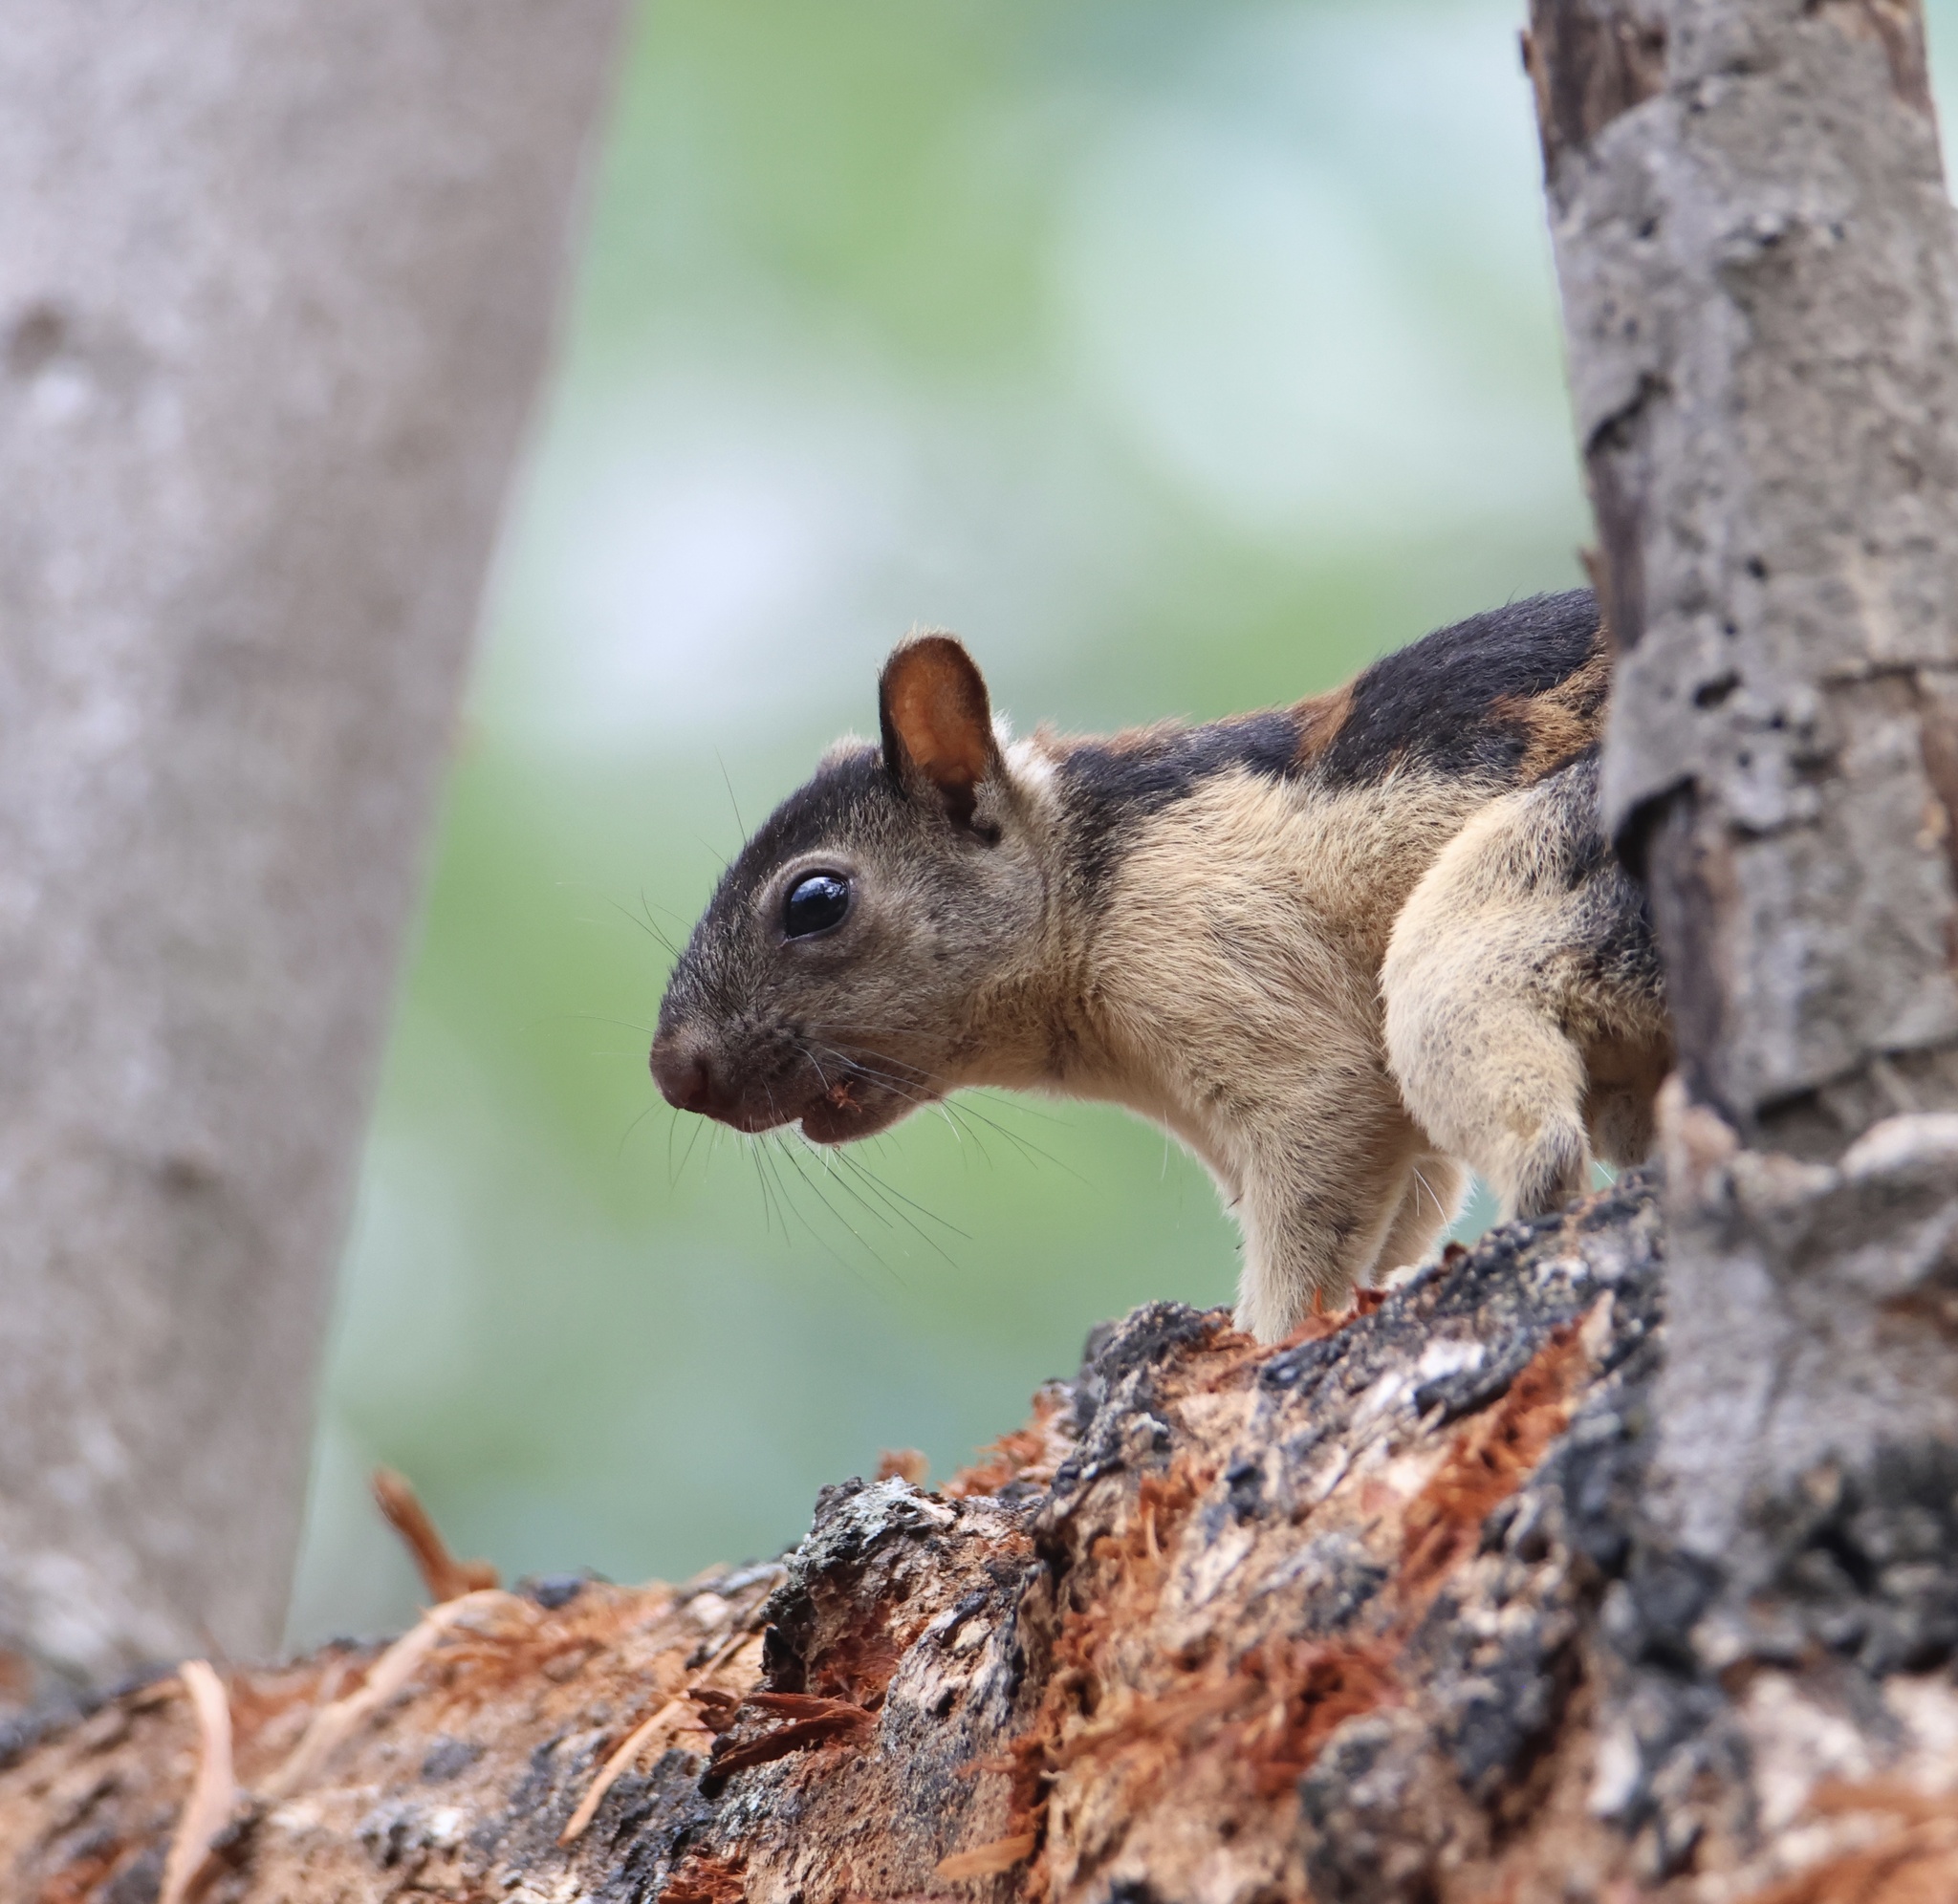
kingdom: Animalia
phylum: Chordata
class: Mammalia
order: Rodentia
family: Sciuridae
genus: Sciurus
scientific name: Sciurus variegatoides
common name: Variegated squirrel
